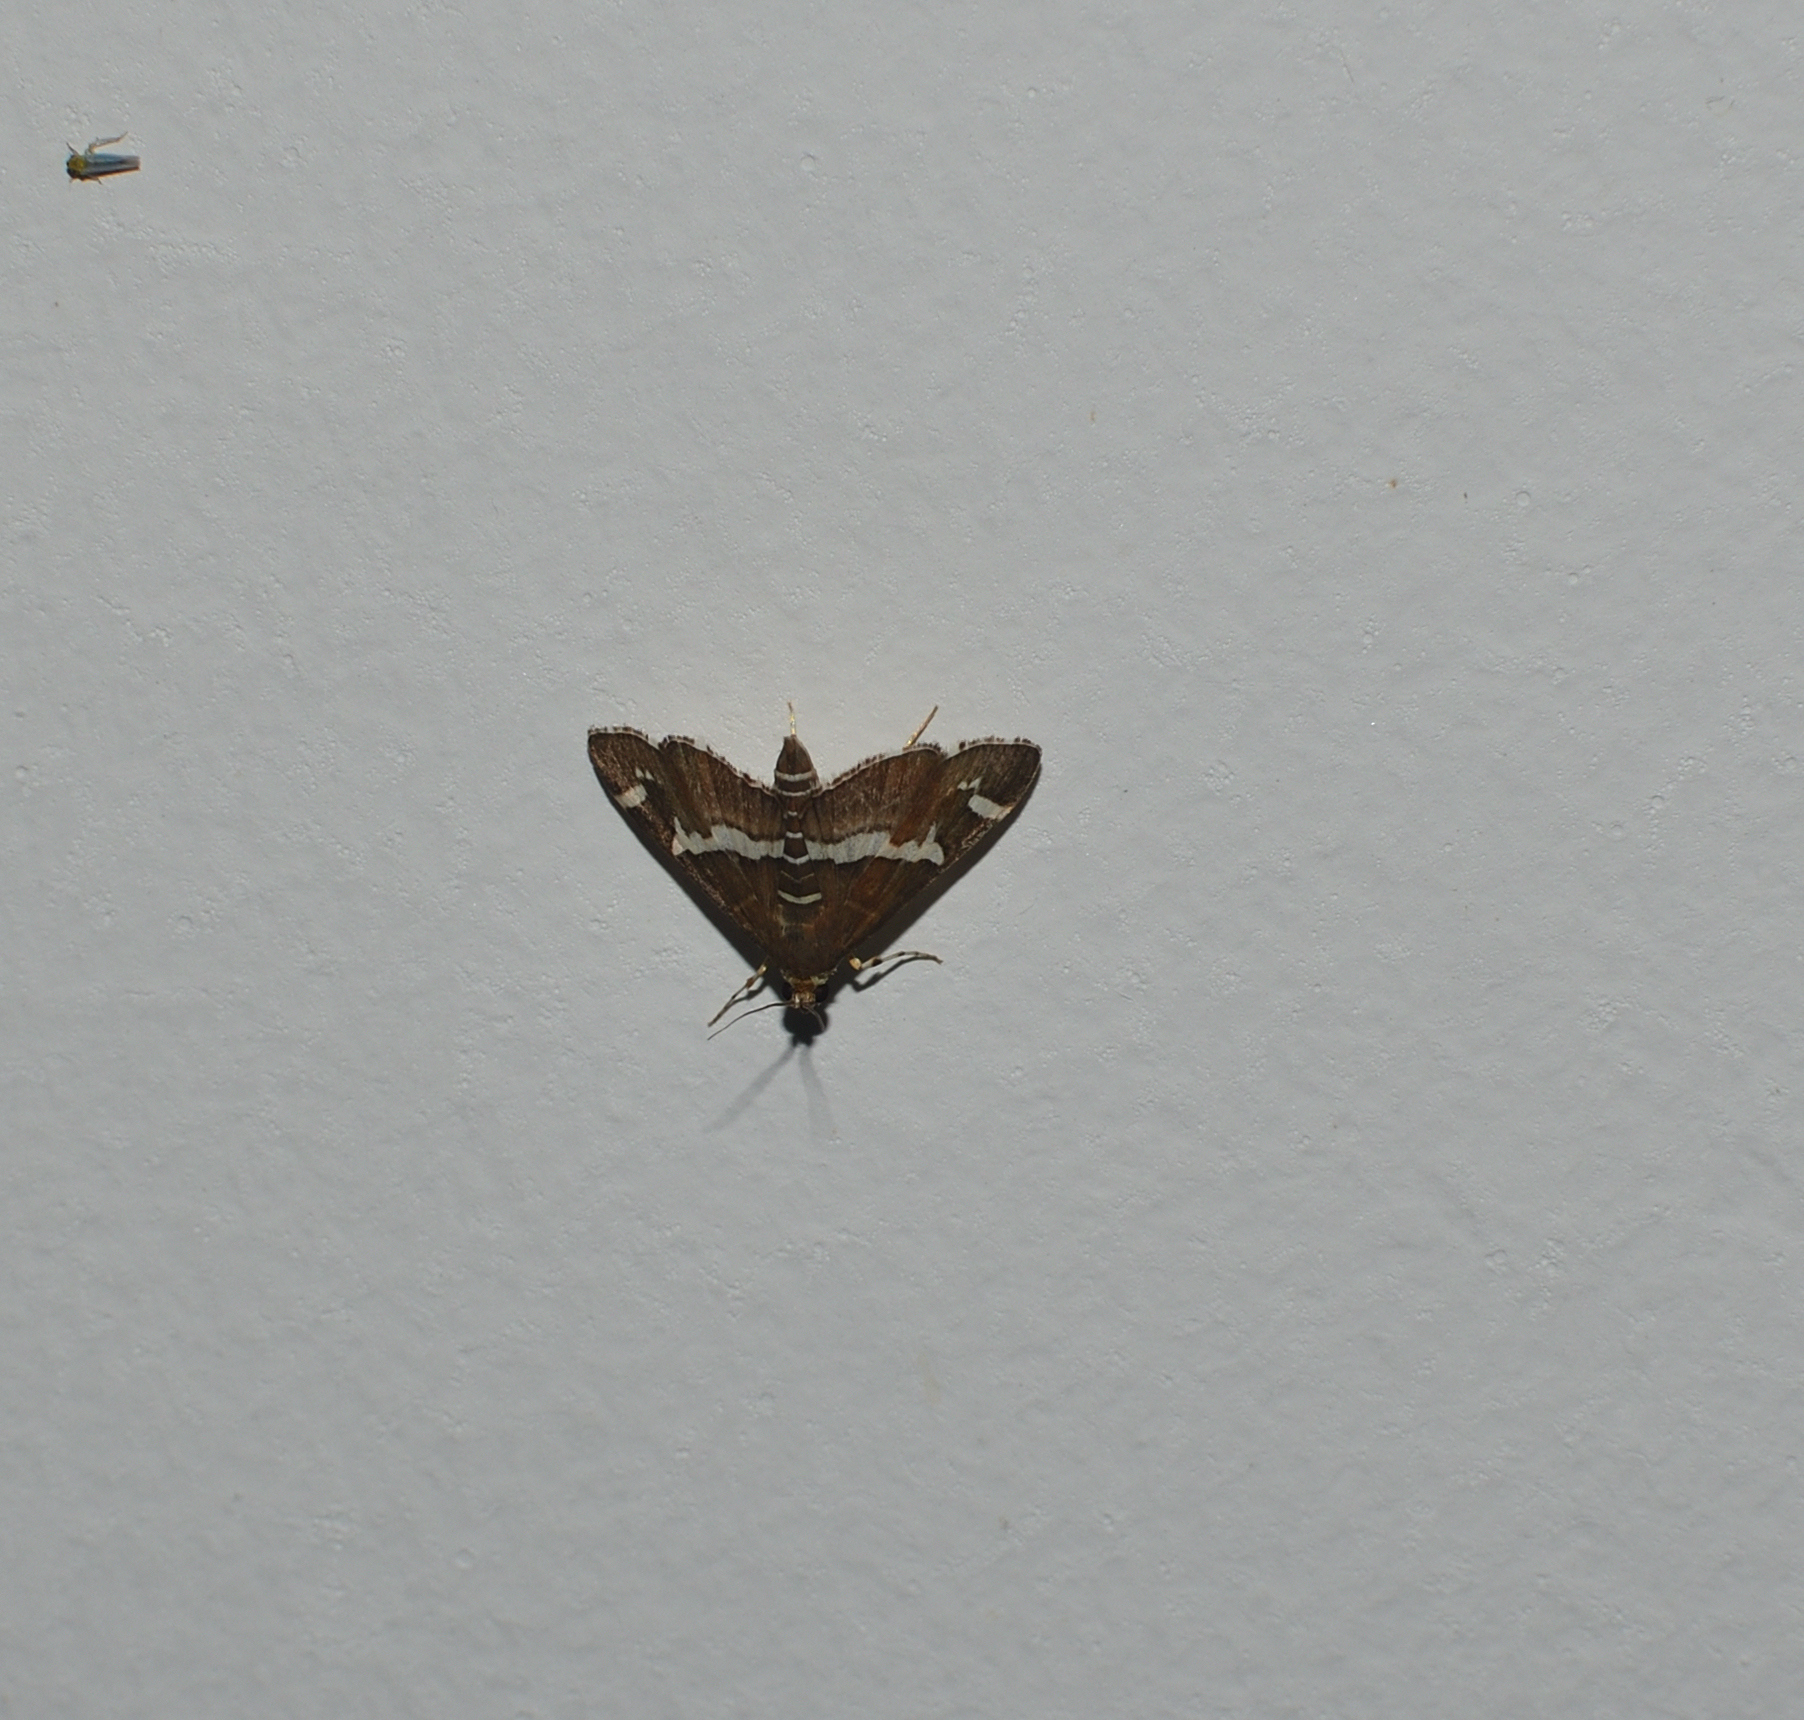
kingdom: Animalia
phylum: Arthropoda
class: Insecta
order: Lepidoptera
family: Crambidae
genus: Spoladea
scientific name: Spoladea recurvalis
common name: Beet webworm moth
